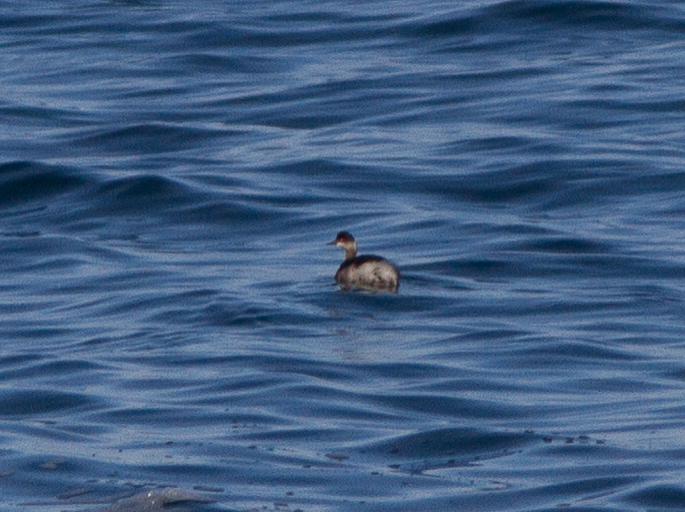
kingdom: Animalia
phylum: Chordata
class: Aves
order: Podicipediformes
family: Podicipedidae
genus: Podiceps
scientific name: Podiceps nigricollis
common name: Black-necked grebe
